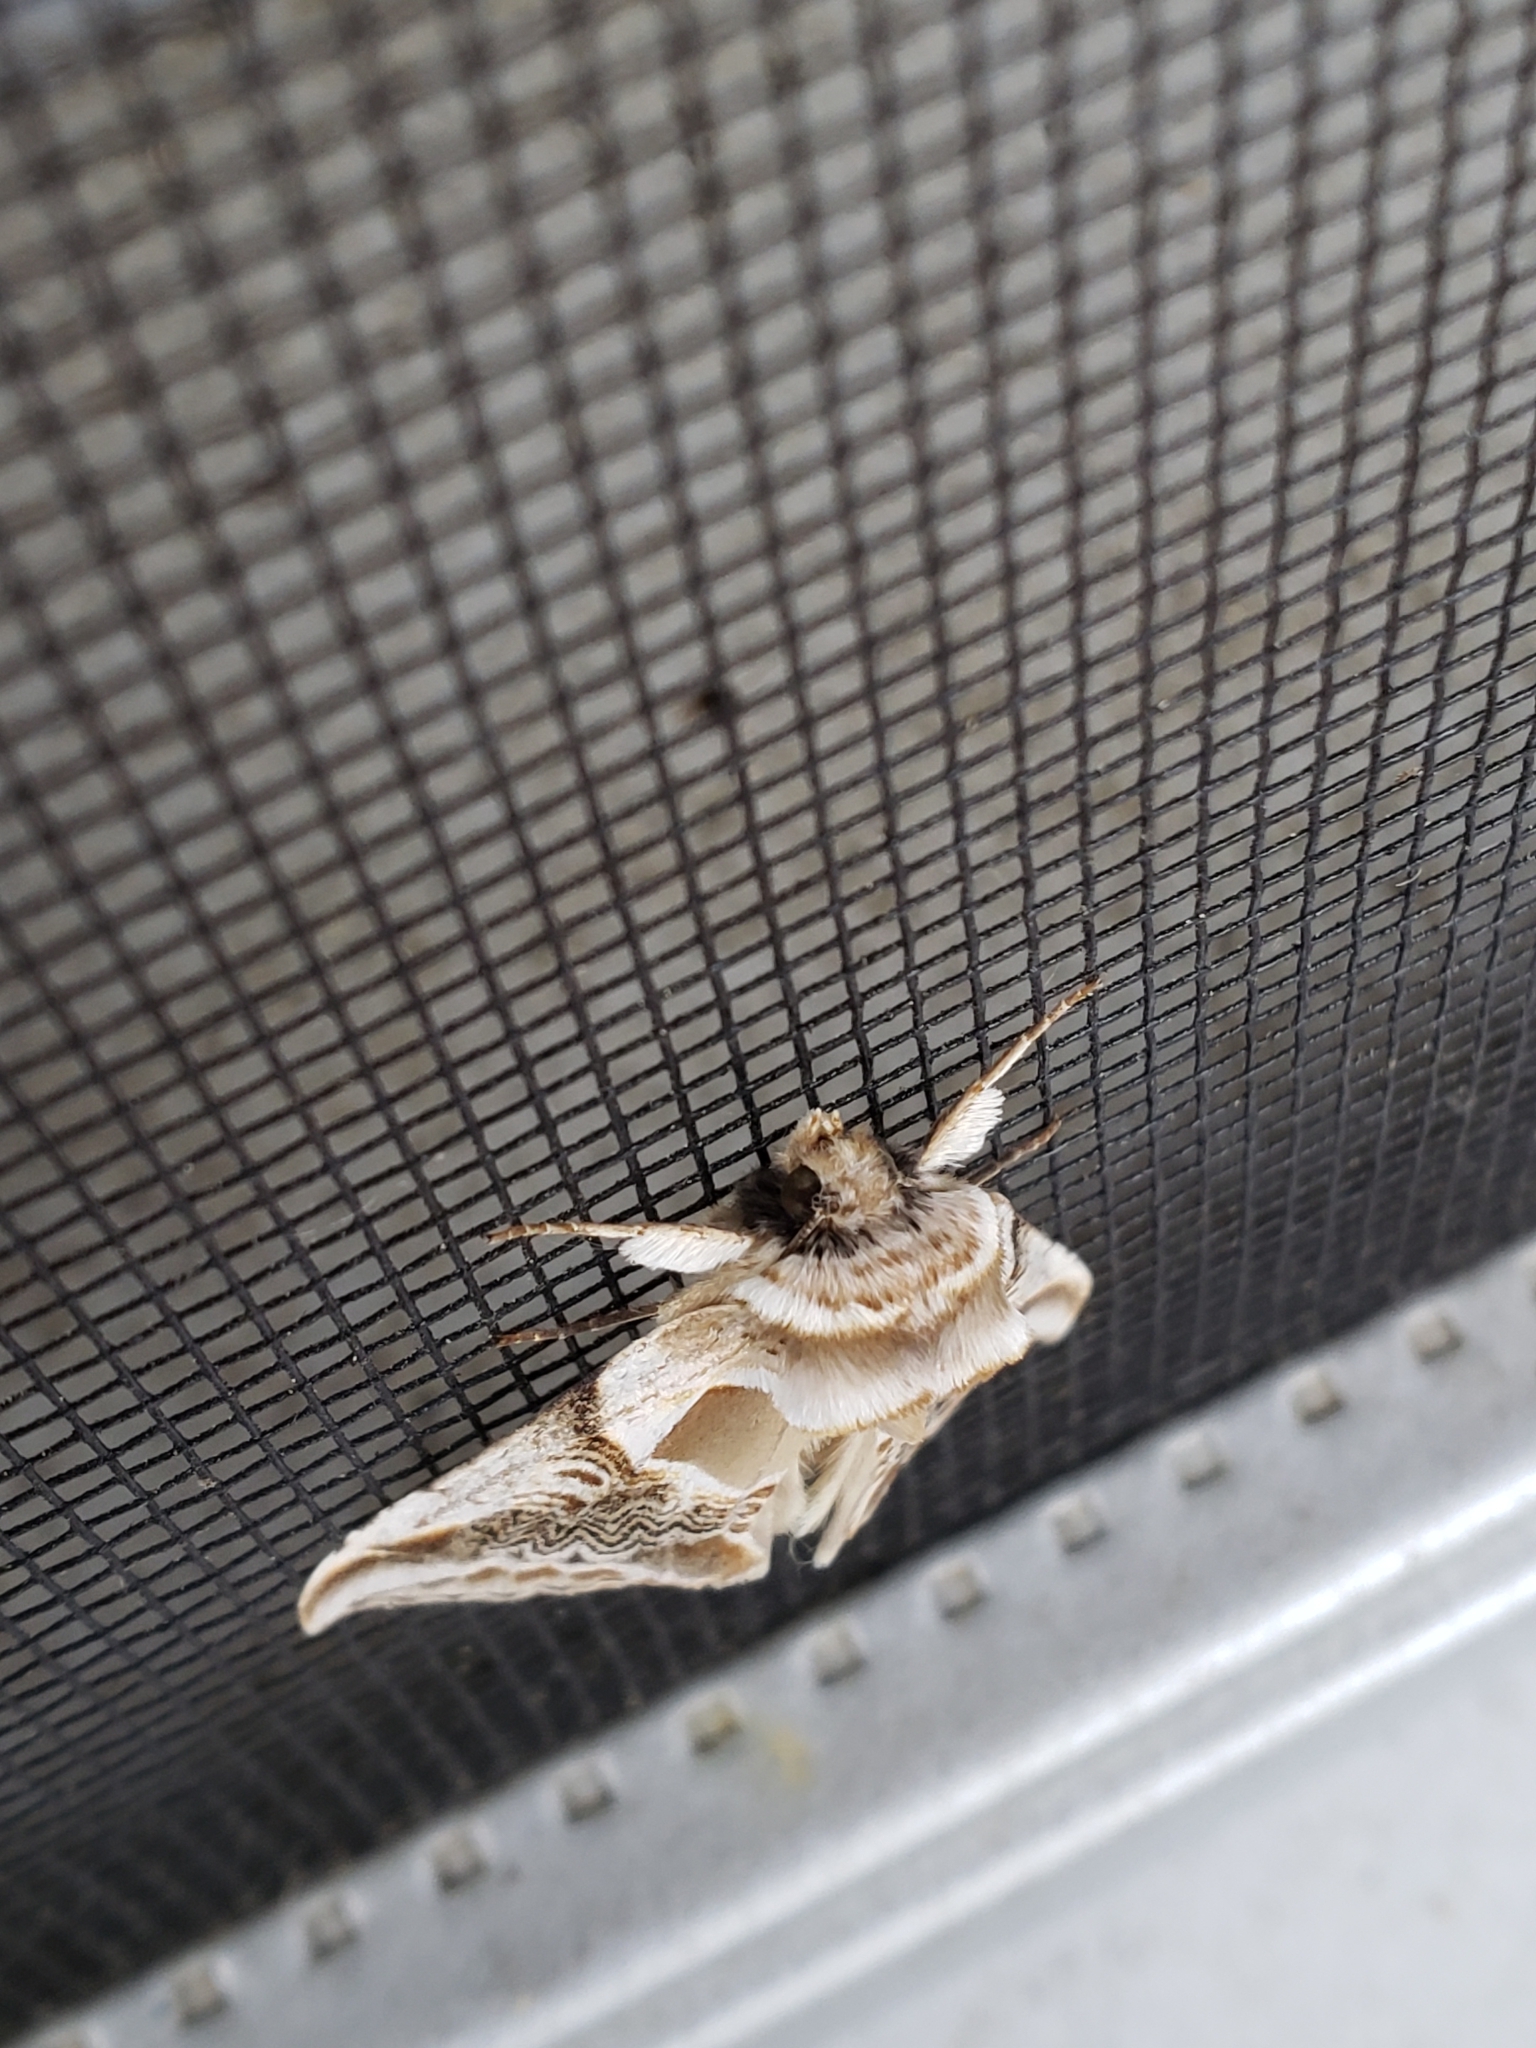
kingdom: Animalia
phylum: Arthropoda
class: Insecta
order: Lepidoptera
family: Drepanidae
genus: Habrosyne
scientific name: Habrosyne scripta
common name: Lettered habrosyne moth
